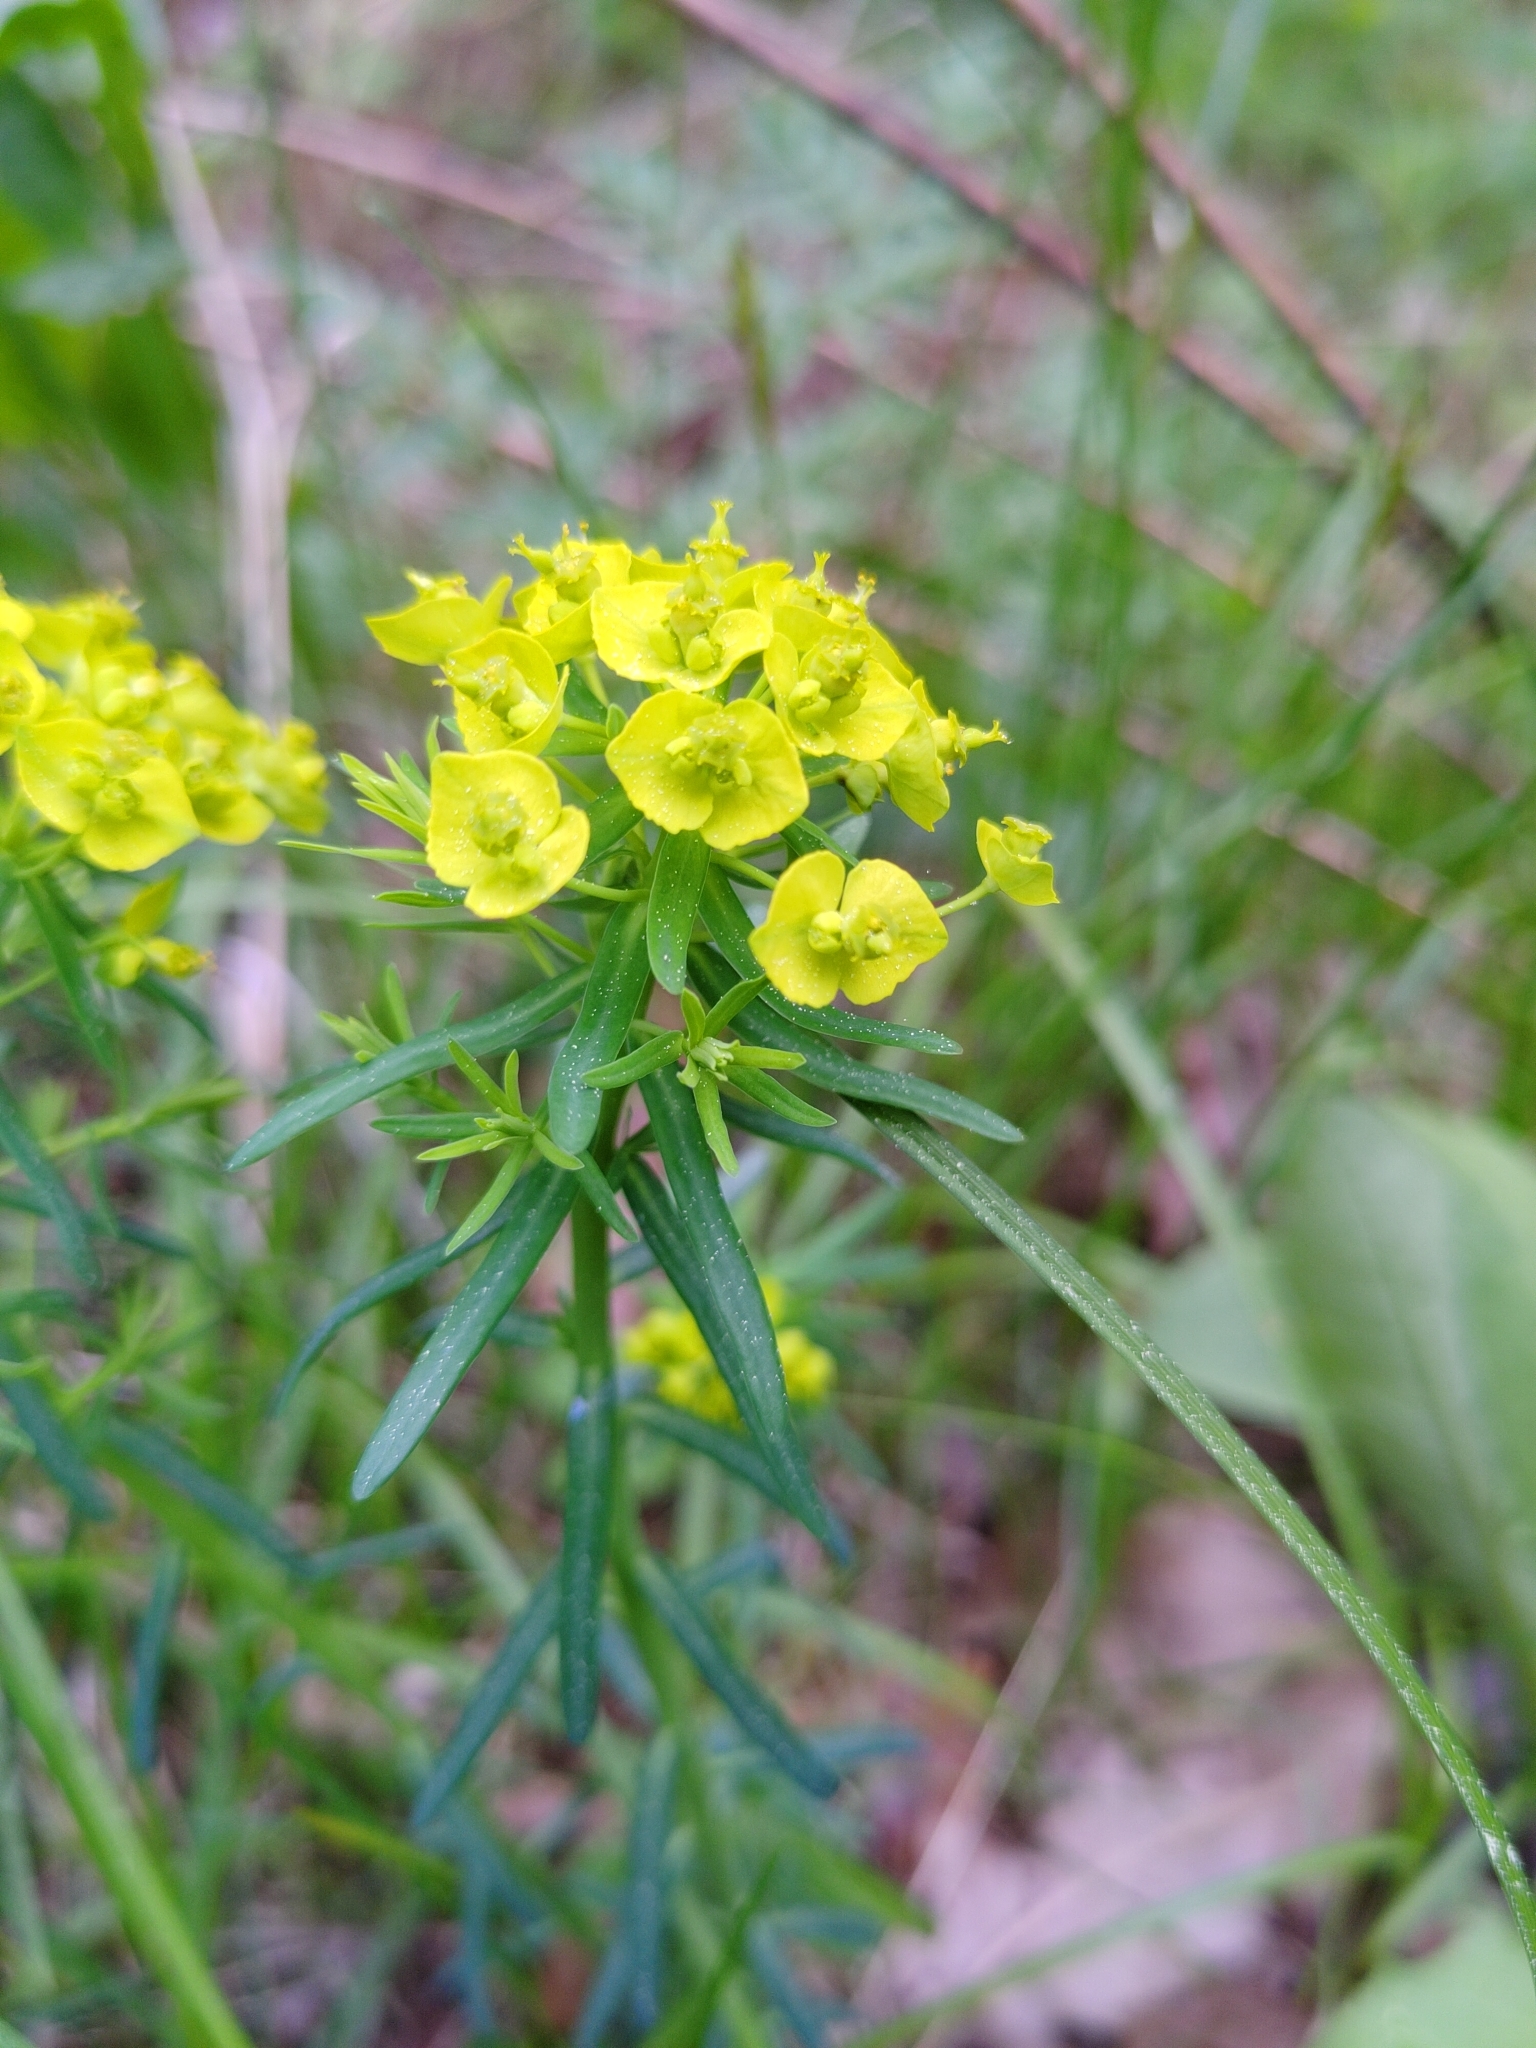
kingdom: Plantae
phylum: Tracheophyta
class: Magnoliopsida
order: Malpighiales
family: Euphorbiaceae
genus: Euphorbia
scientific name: Euphorbia cyparissias
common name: Cypress spurge
